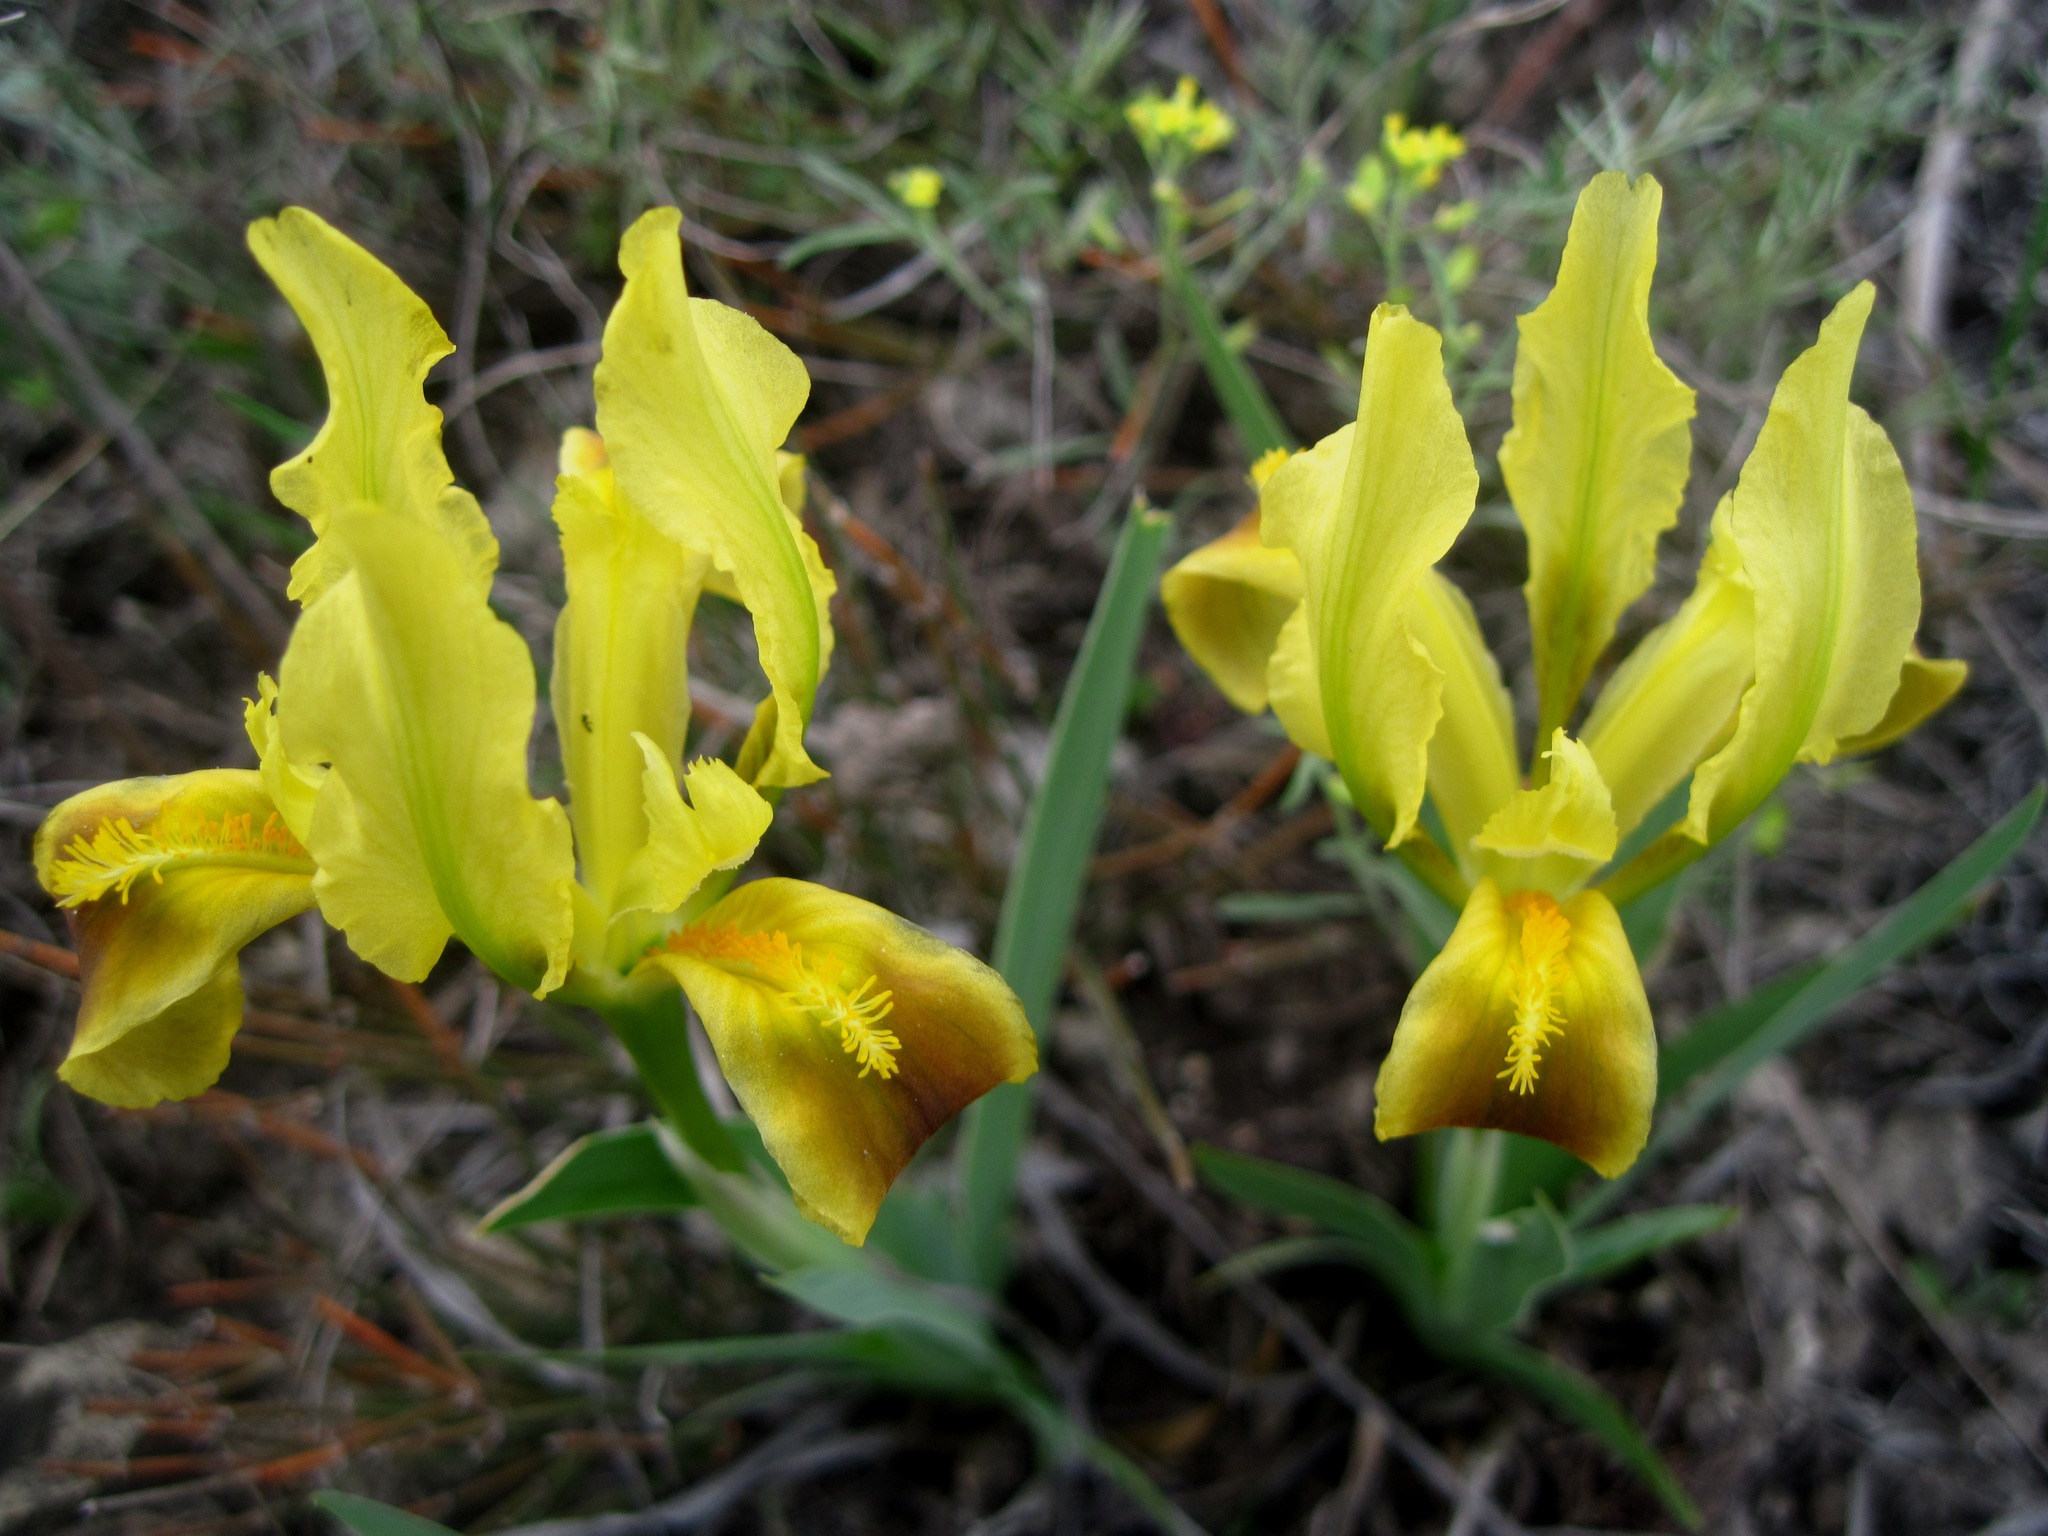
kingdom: Plantae
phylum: Tracheophyta
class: Liliopsida
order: Asparagales
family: Iridaceae
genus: Iris
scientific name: Iris pumila
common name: Dwarf iris
